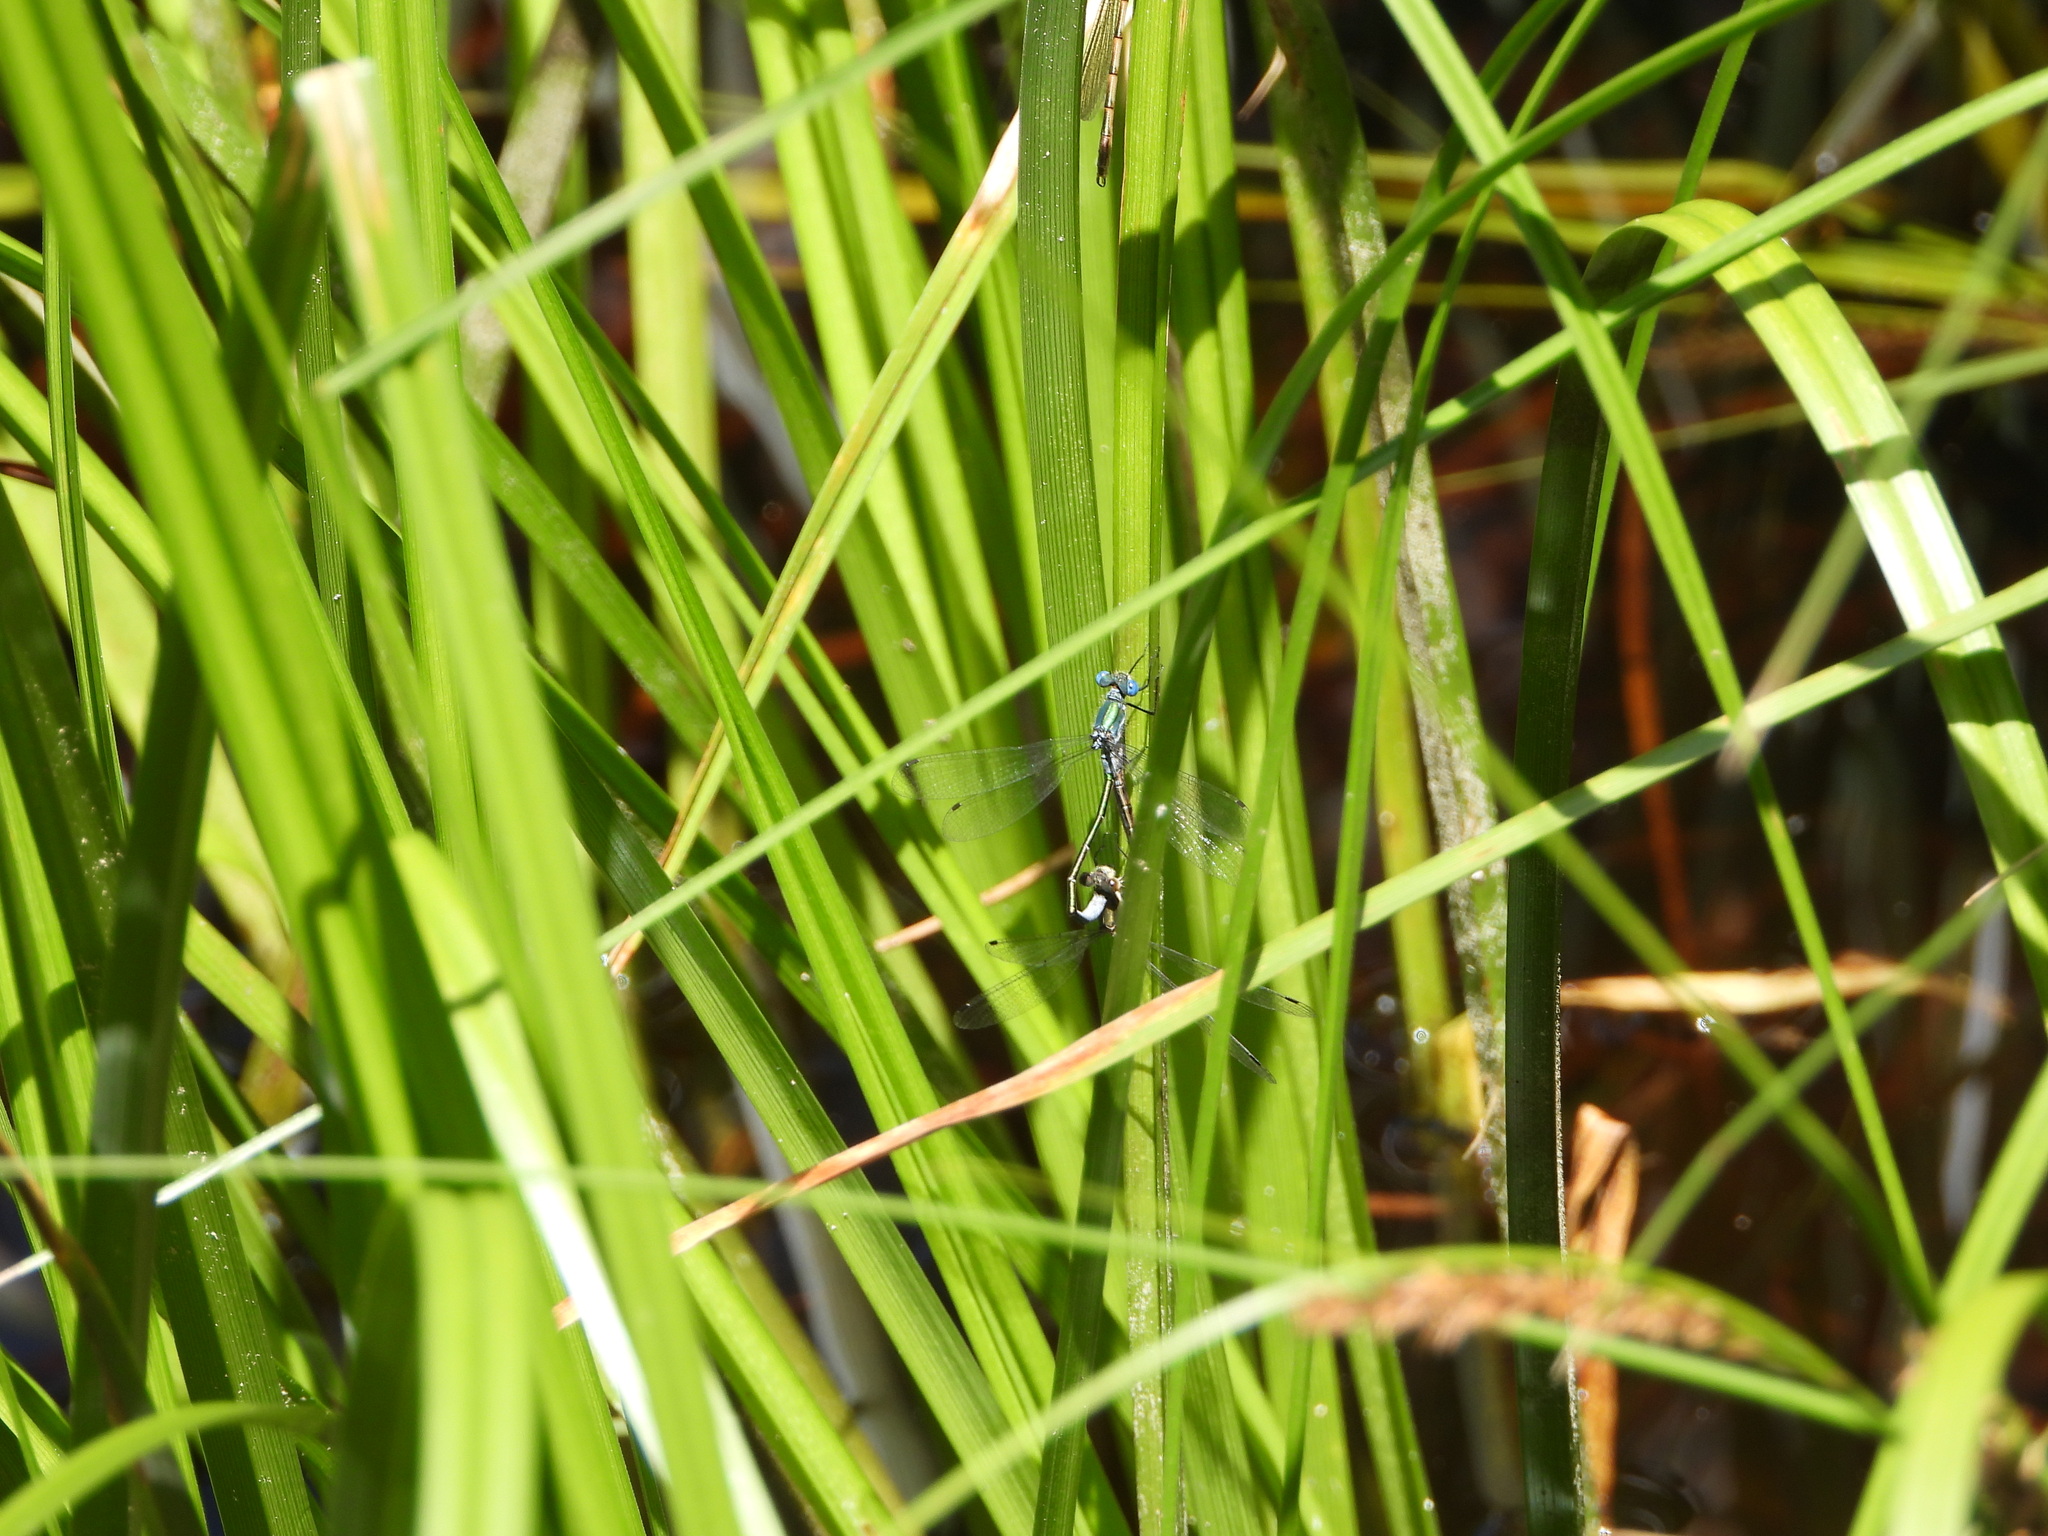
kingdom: Animalia
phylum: Arthropoda
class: Insecta
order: Odonata
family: Lestidae
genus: Lestes
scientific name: Lestes dryas
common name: Scarce emerald damselfly
